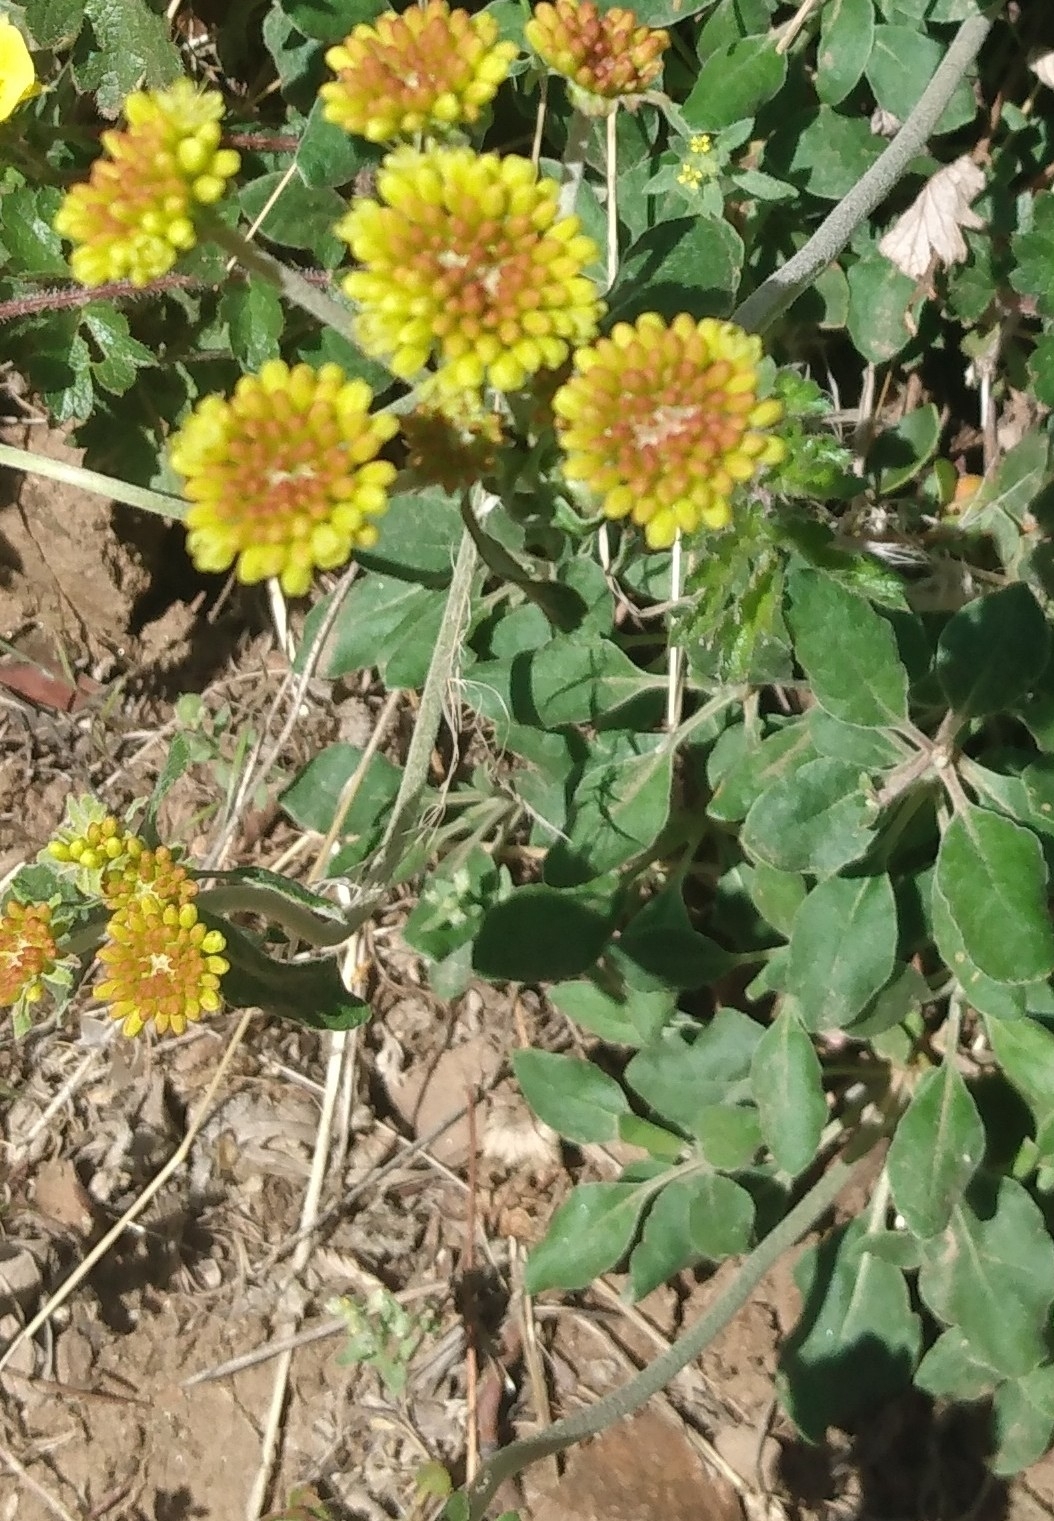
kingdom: Plantae
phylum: Tracheophyta
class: Magnoliopsida
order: Caryophyllales
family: Polygonaceae
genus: Eriogonum
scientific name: Eriogonum umbellatum
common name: Sulfur-buckwheat
